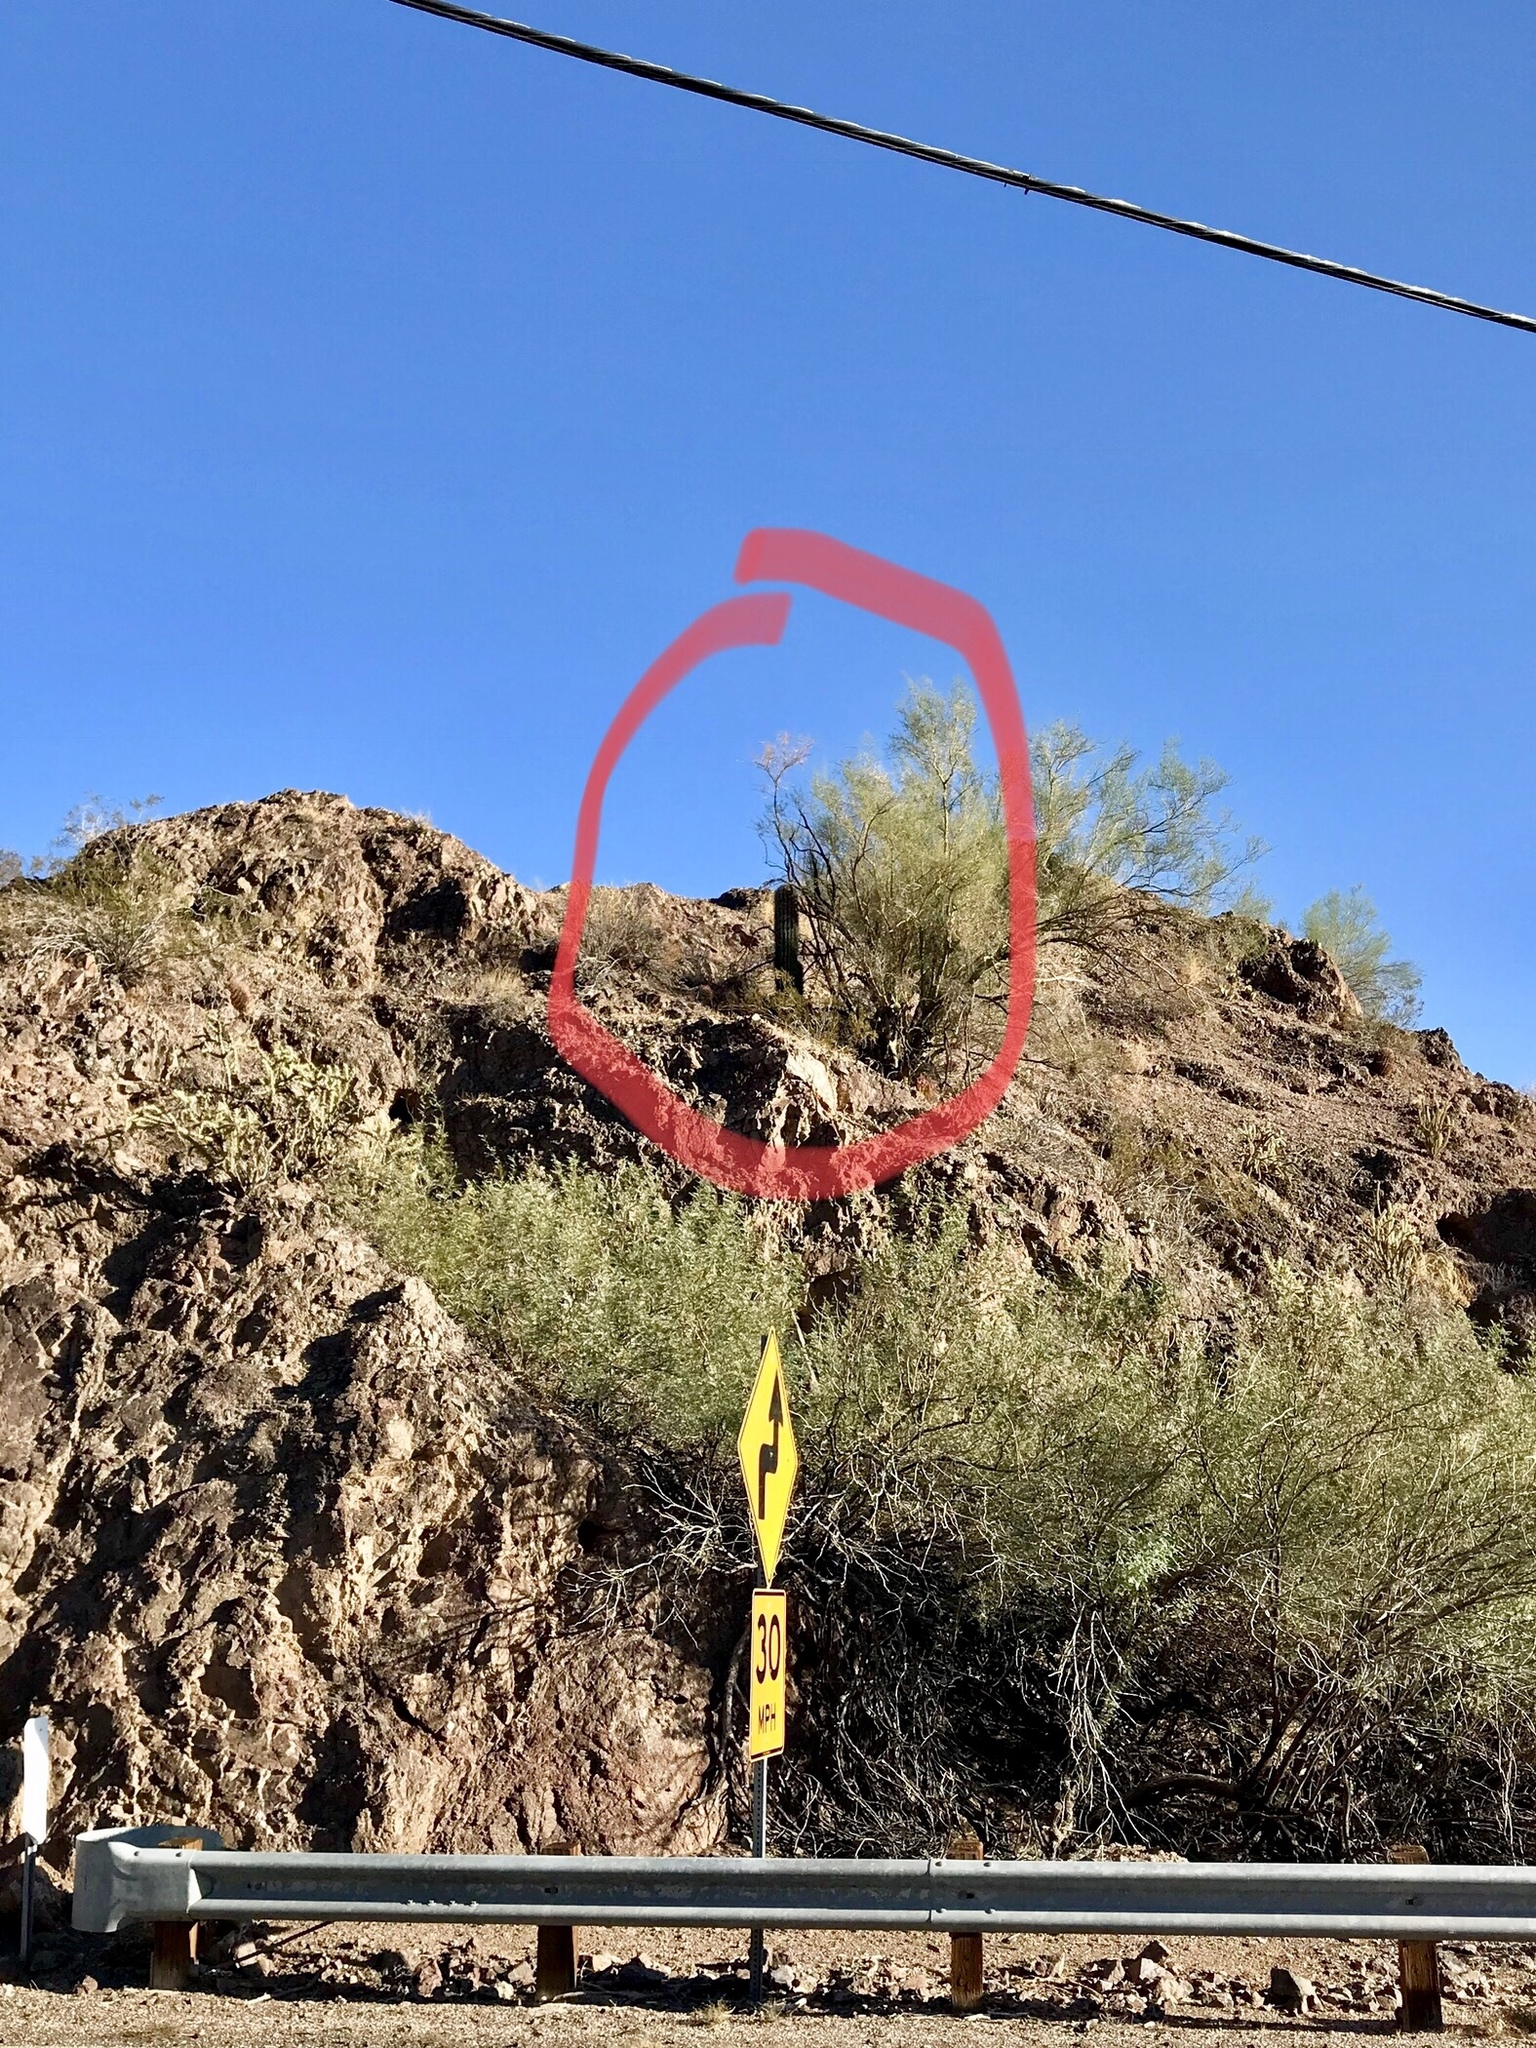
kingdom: Plantae
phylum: Tracheophyta
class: Magnoliopsida
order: Caryophyllales
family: Cactaceae
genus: Carnegiea
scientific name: Carnegiea gigantea
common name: Saguaro
